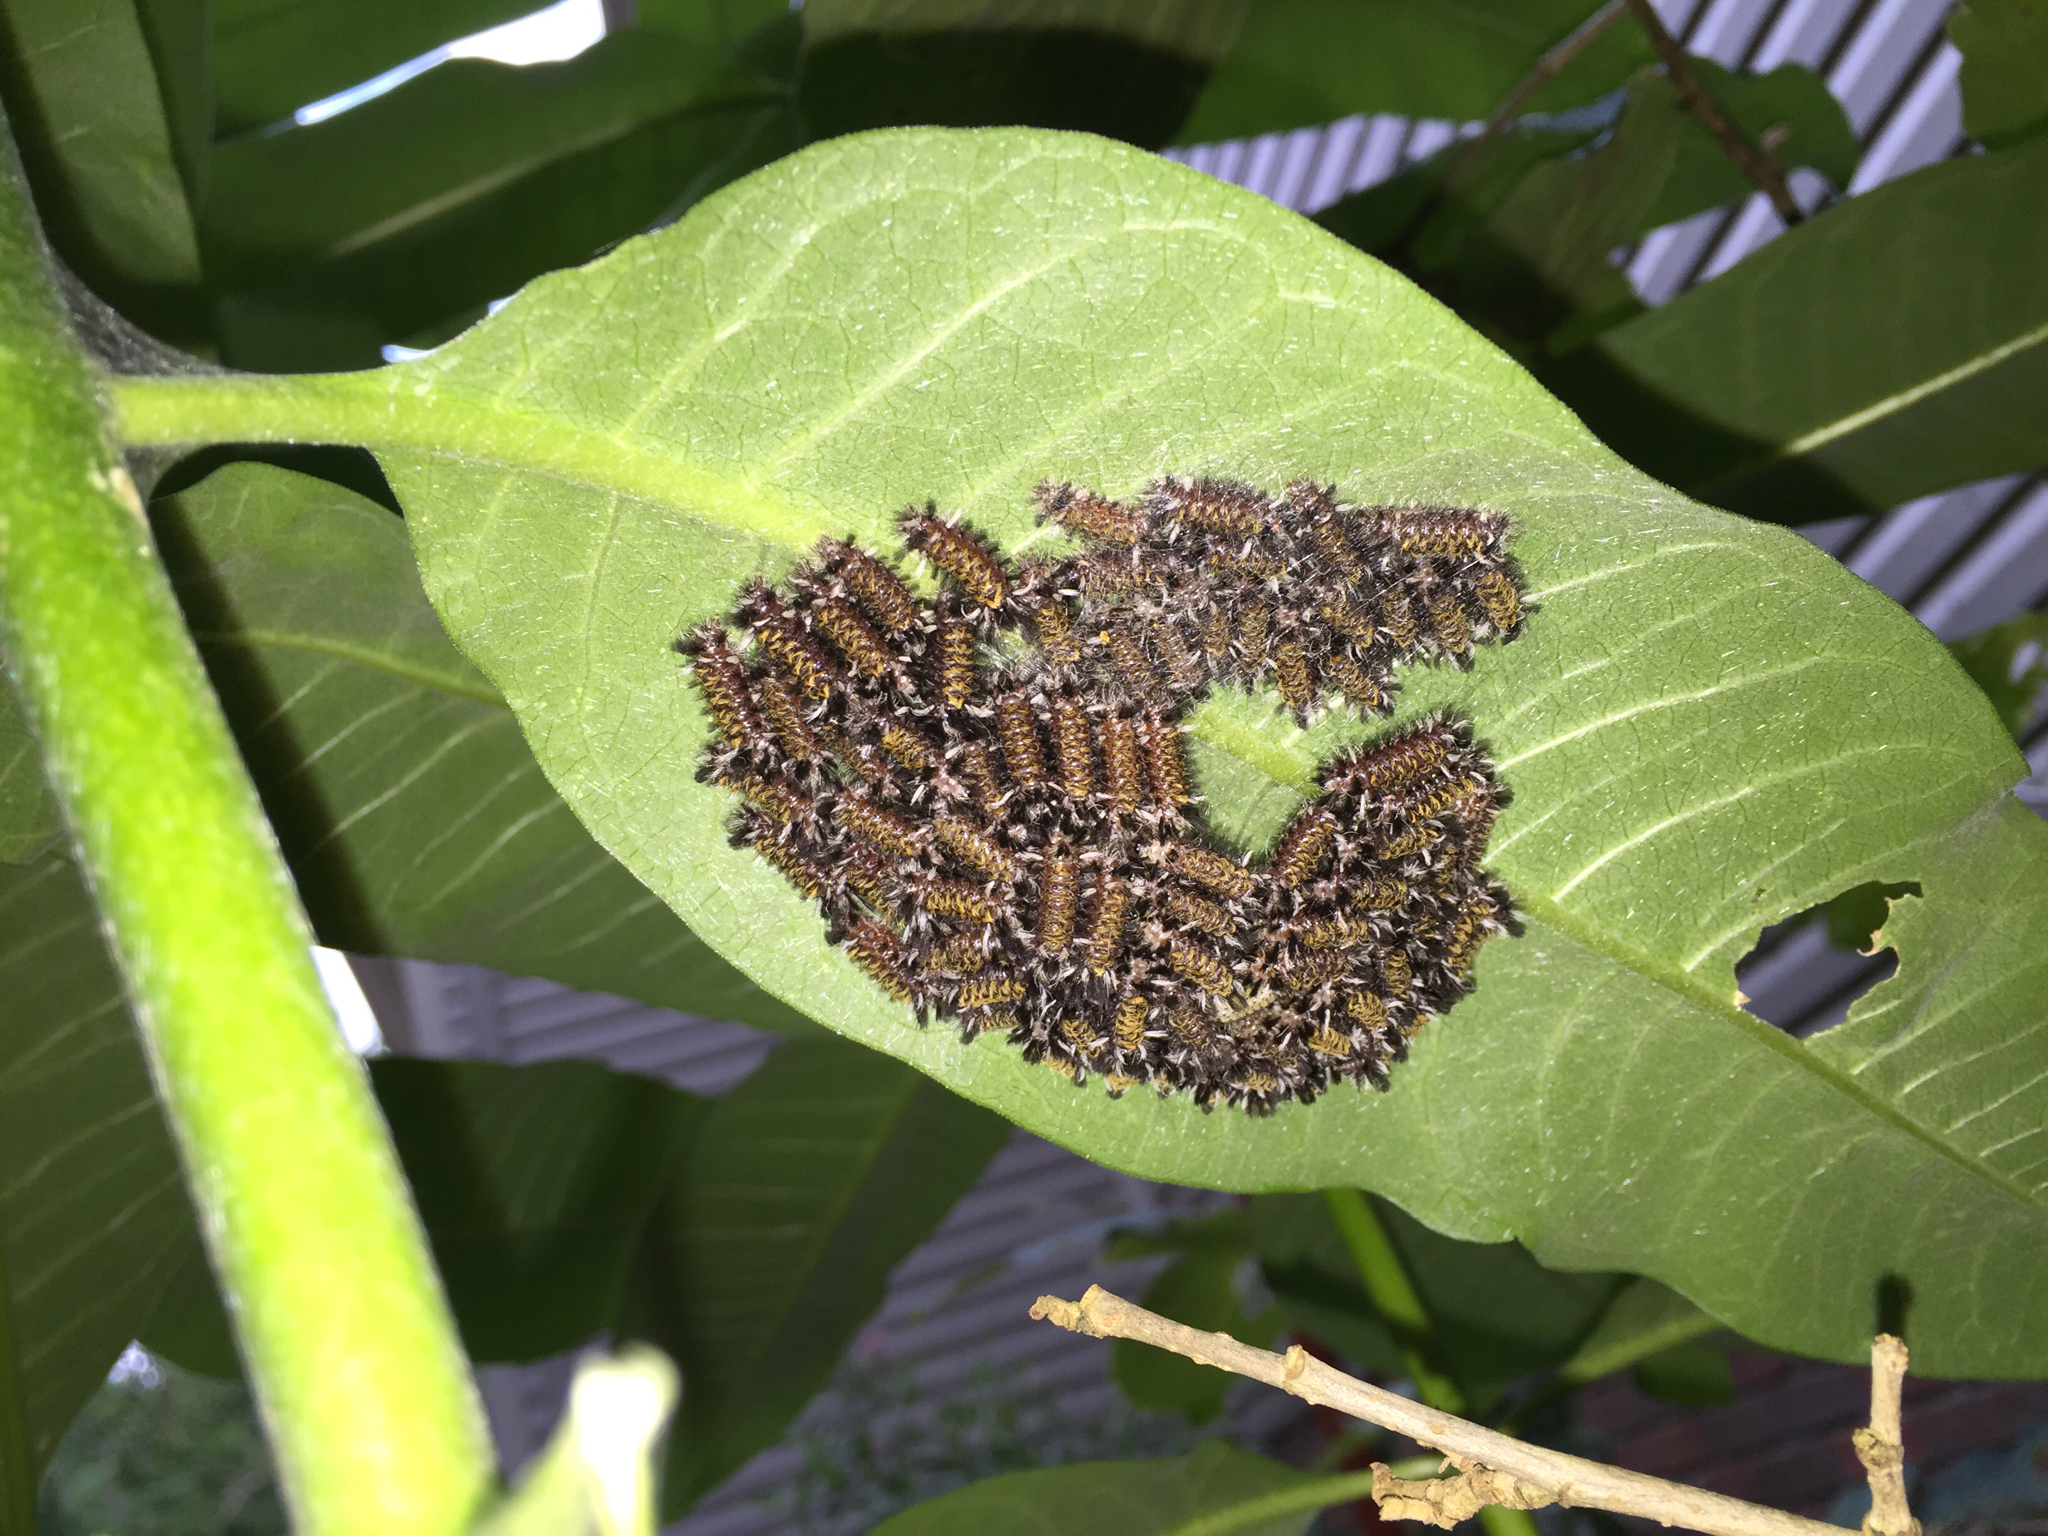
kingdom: Animalia
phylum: Arthropoda
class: Insecta
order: Lepidoptera
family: Erebidae
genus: Euchaetes
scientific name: Euchaetes egle
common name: Milkweed tussock moth
